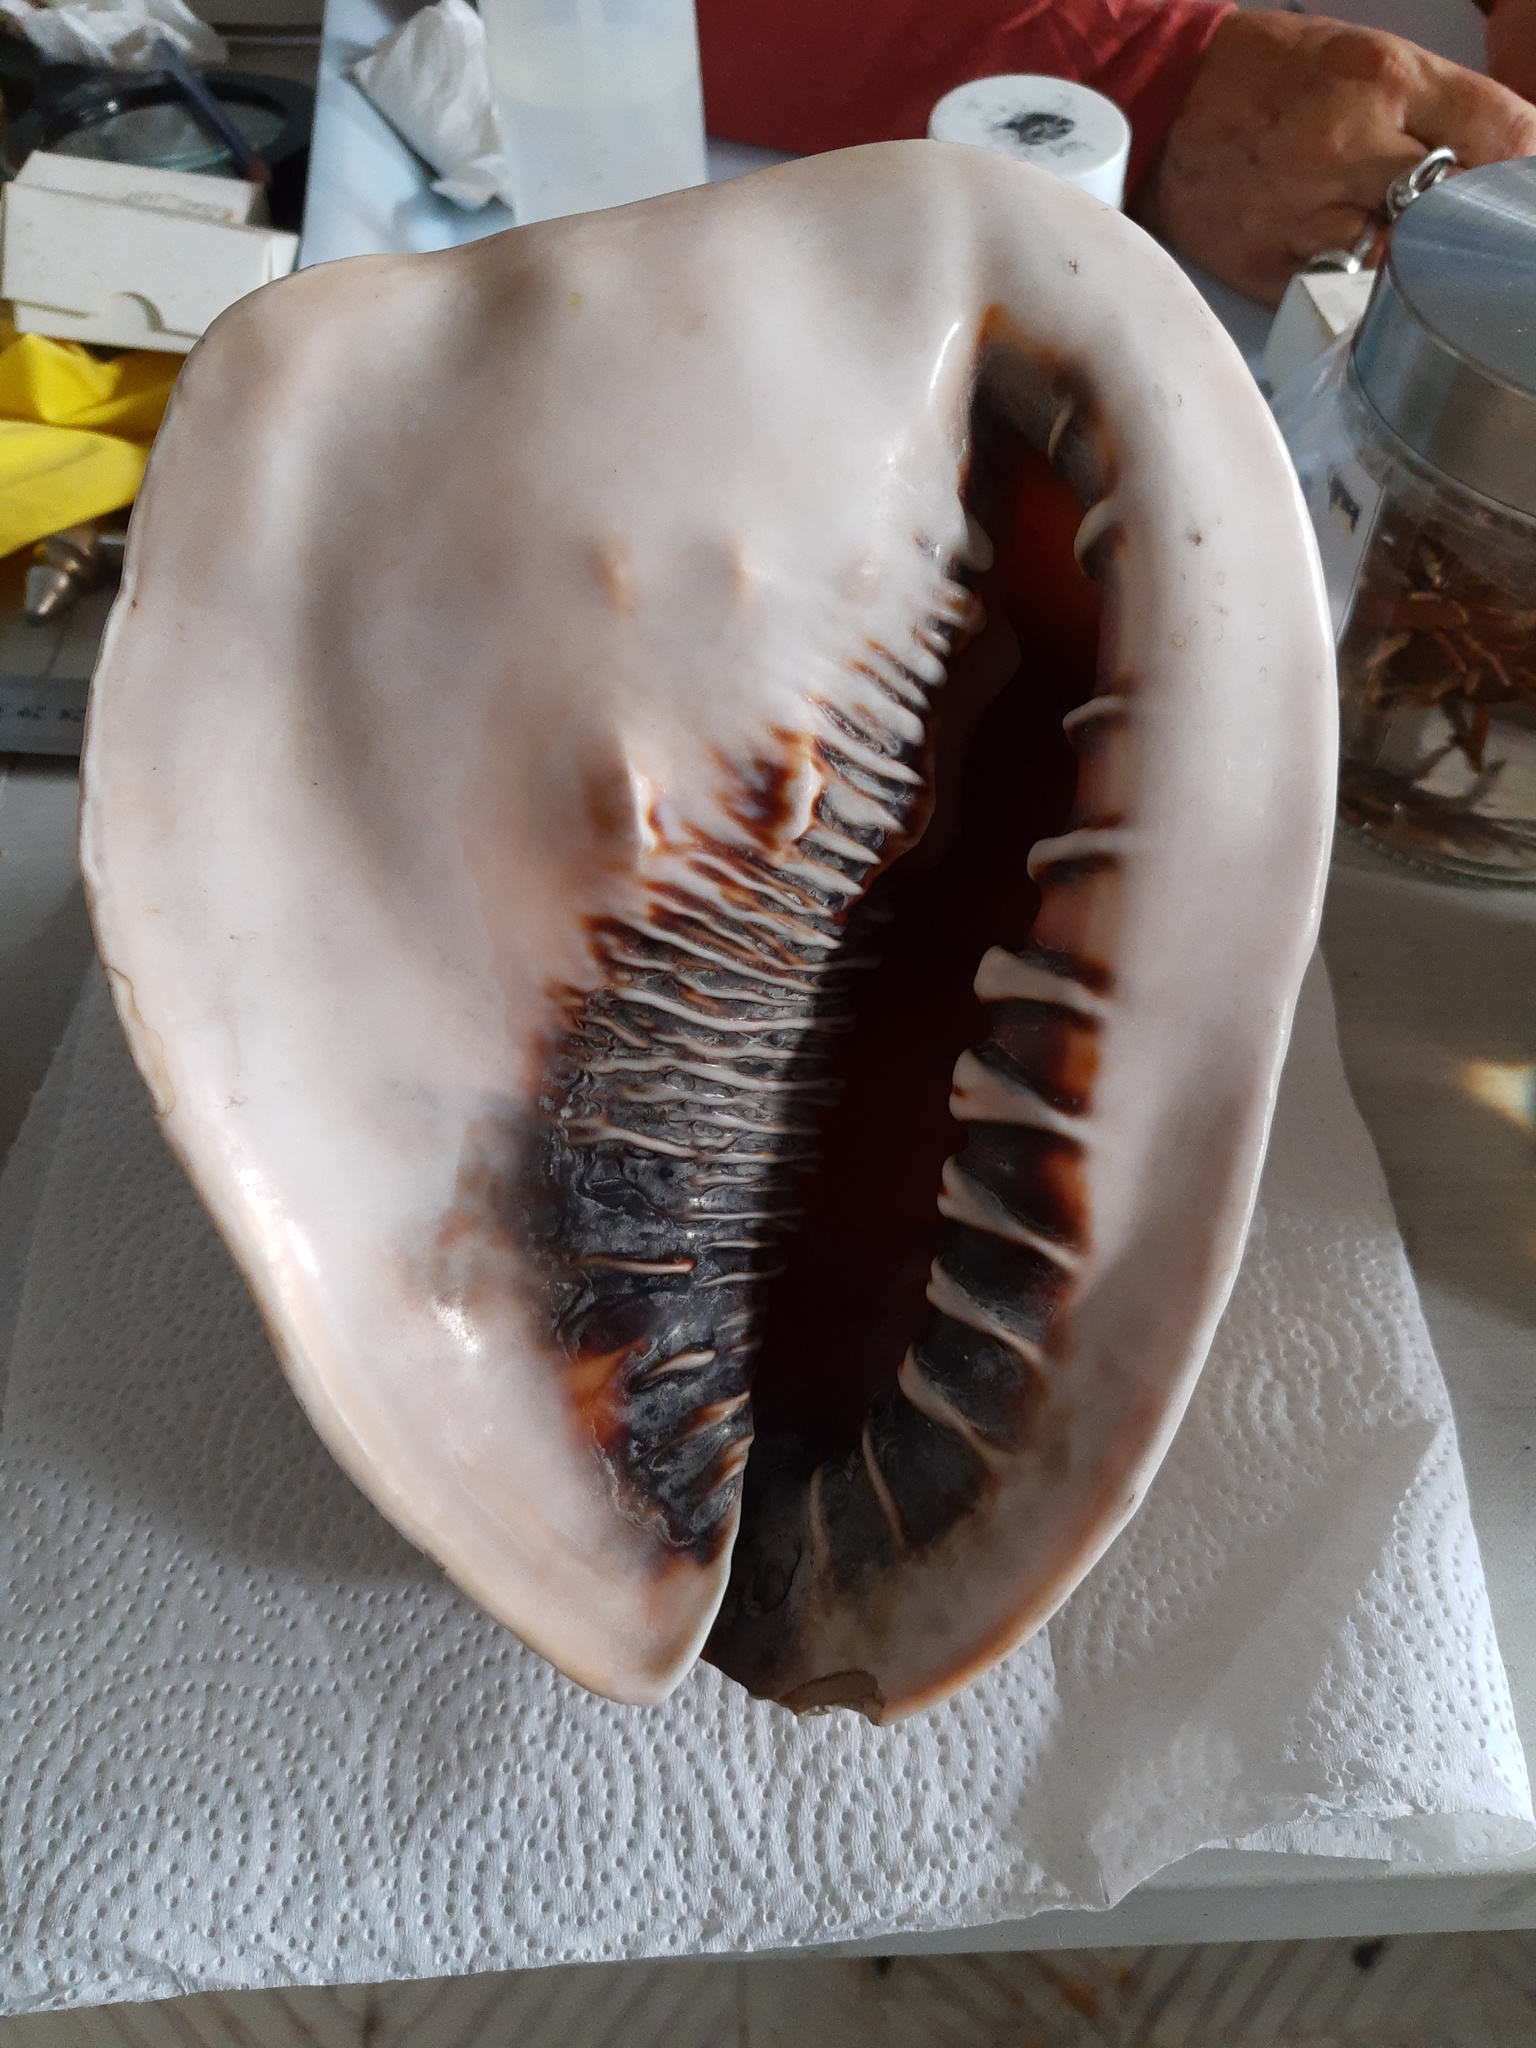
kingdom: Animalia
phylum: Mollusca
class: Gastropoda
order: Littorinimorpha
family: Cassidae
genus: Cassis
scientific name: Cassis madagascariensis
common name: Cameo helmet
